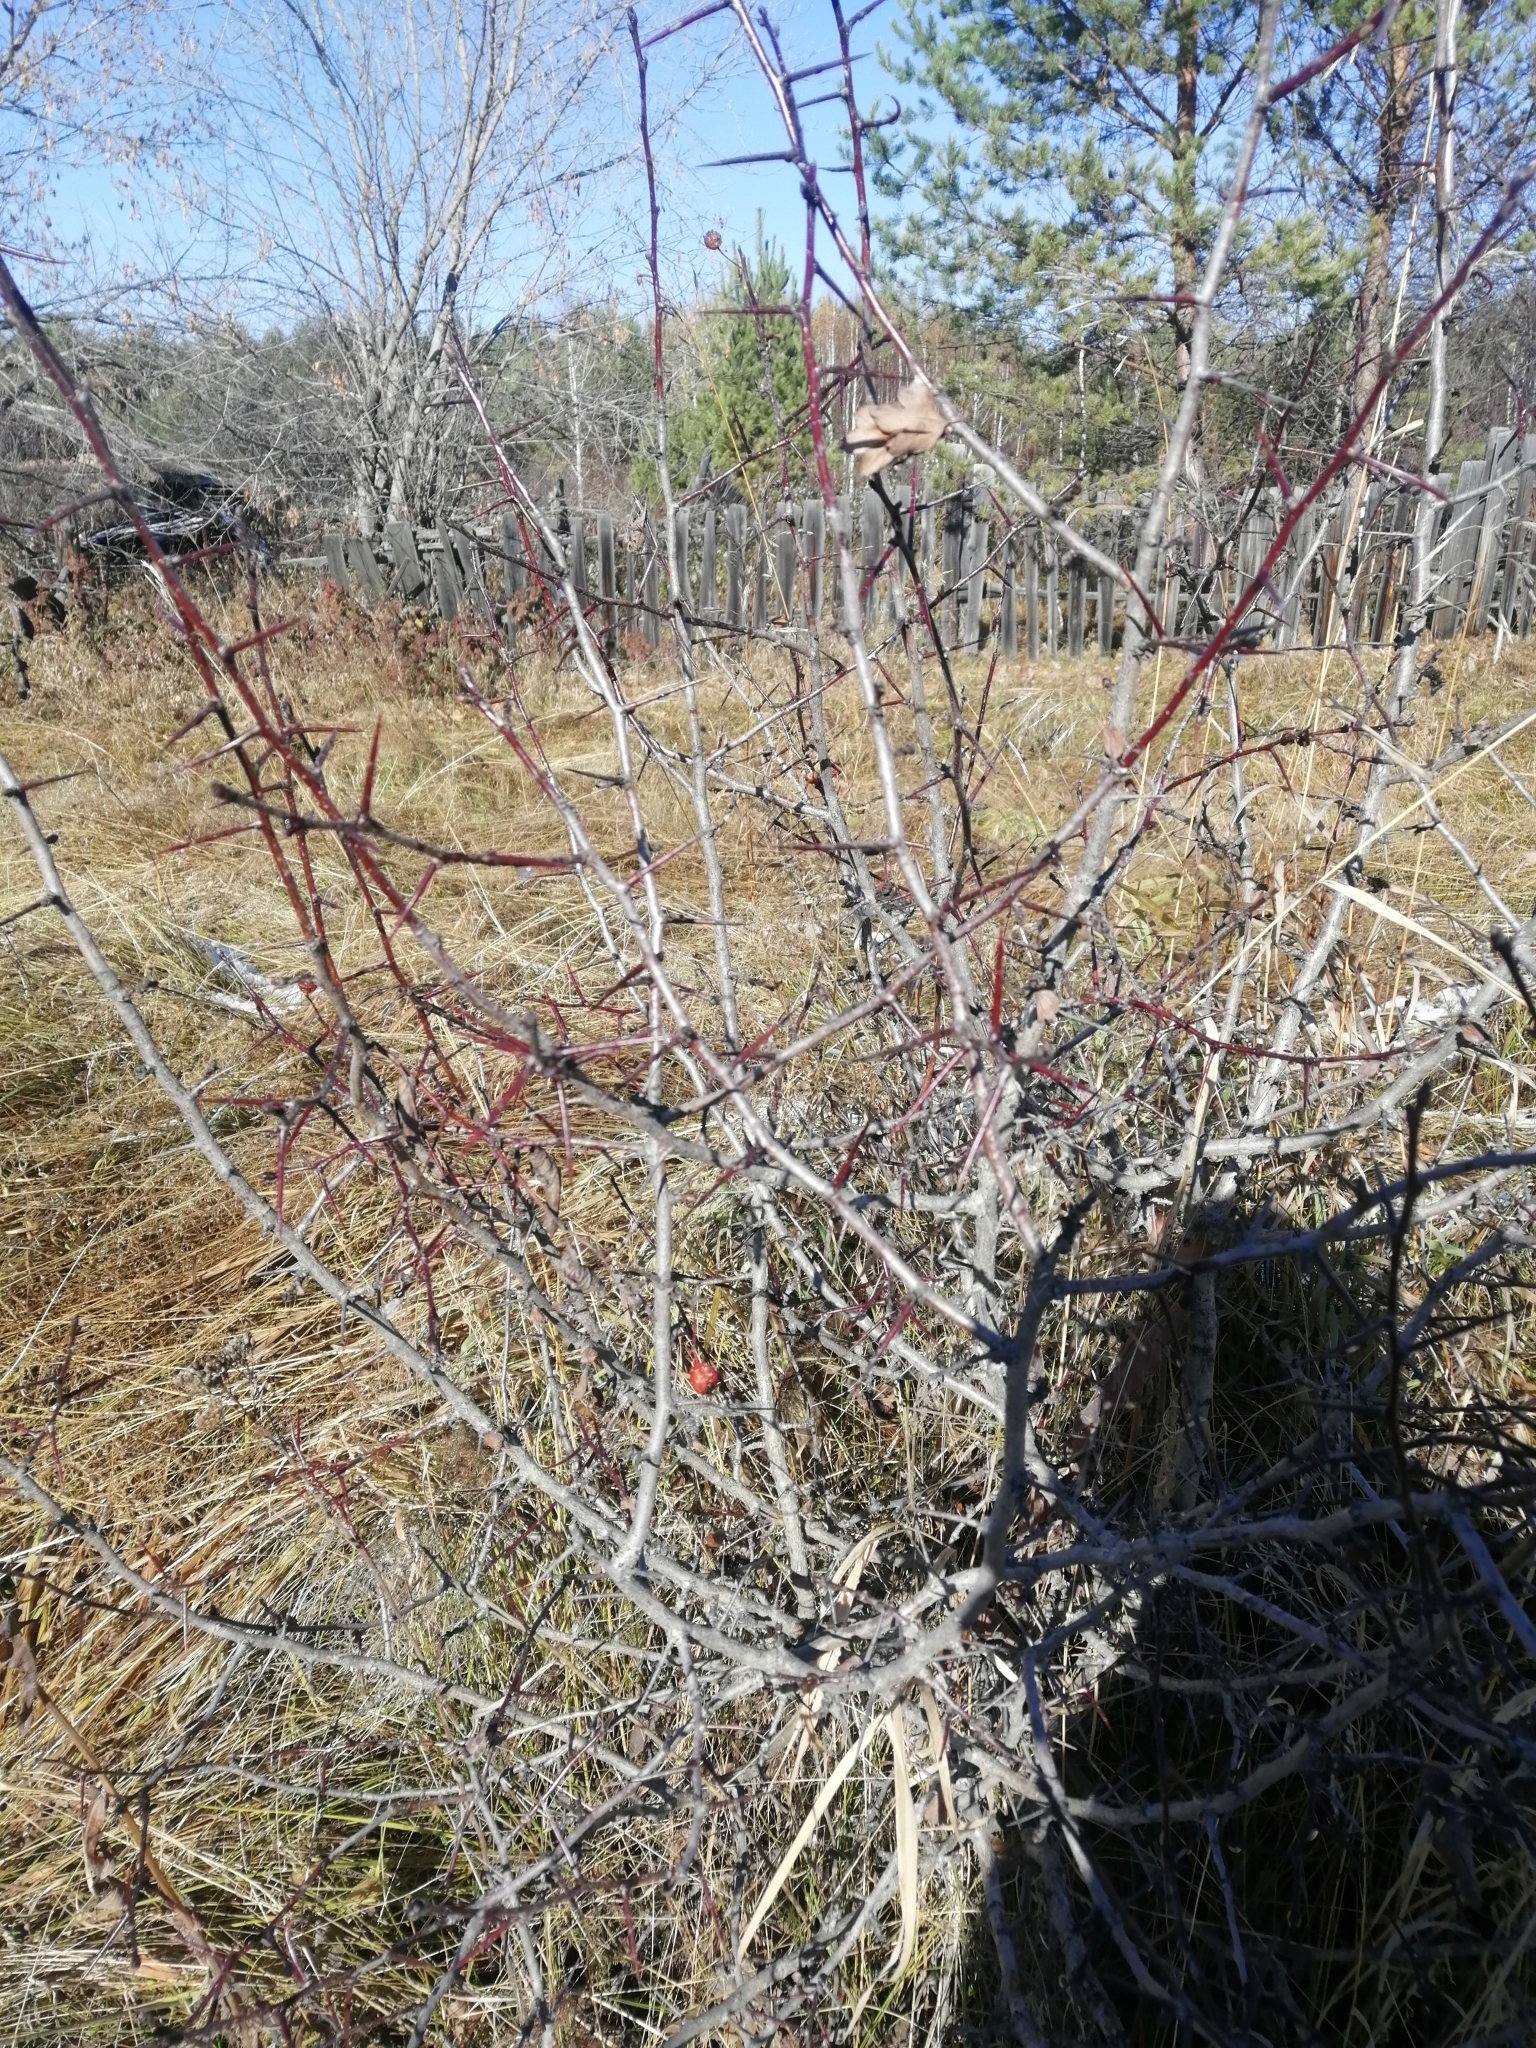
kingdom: Plantae
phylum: Tracheophyta
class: Magnoliopsida
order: Rosales
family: Rosaceae
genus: Crataegus
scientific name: Crataegus sanguinea
